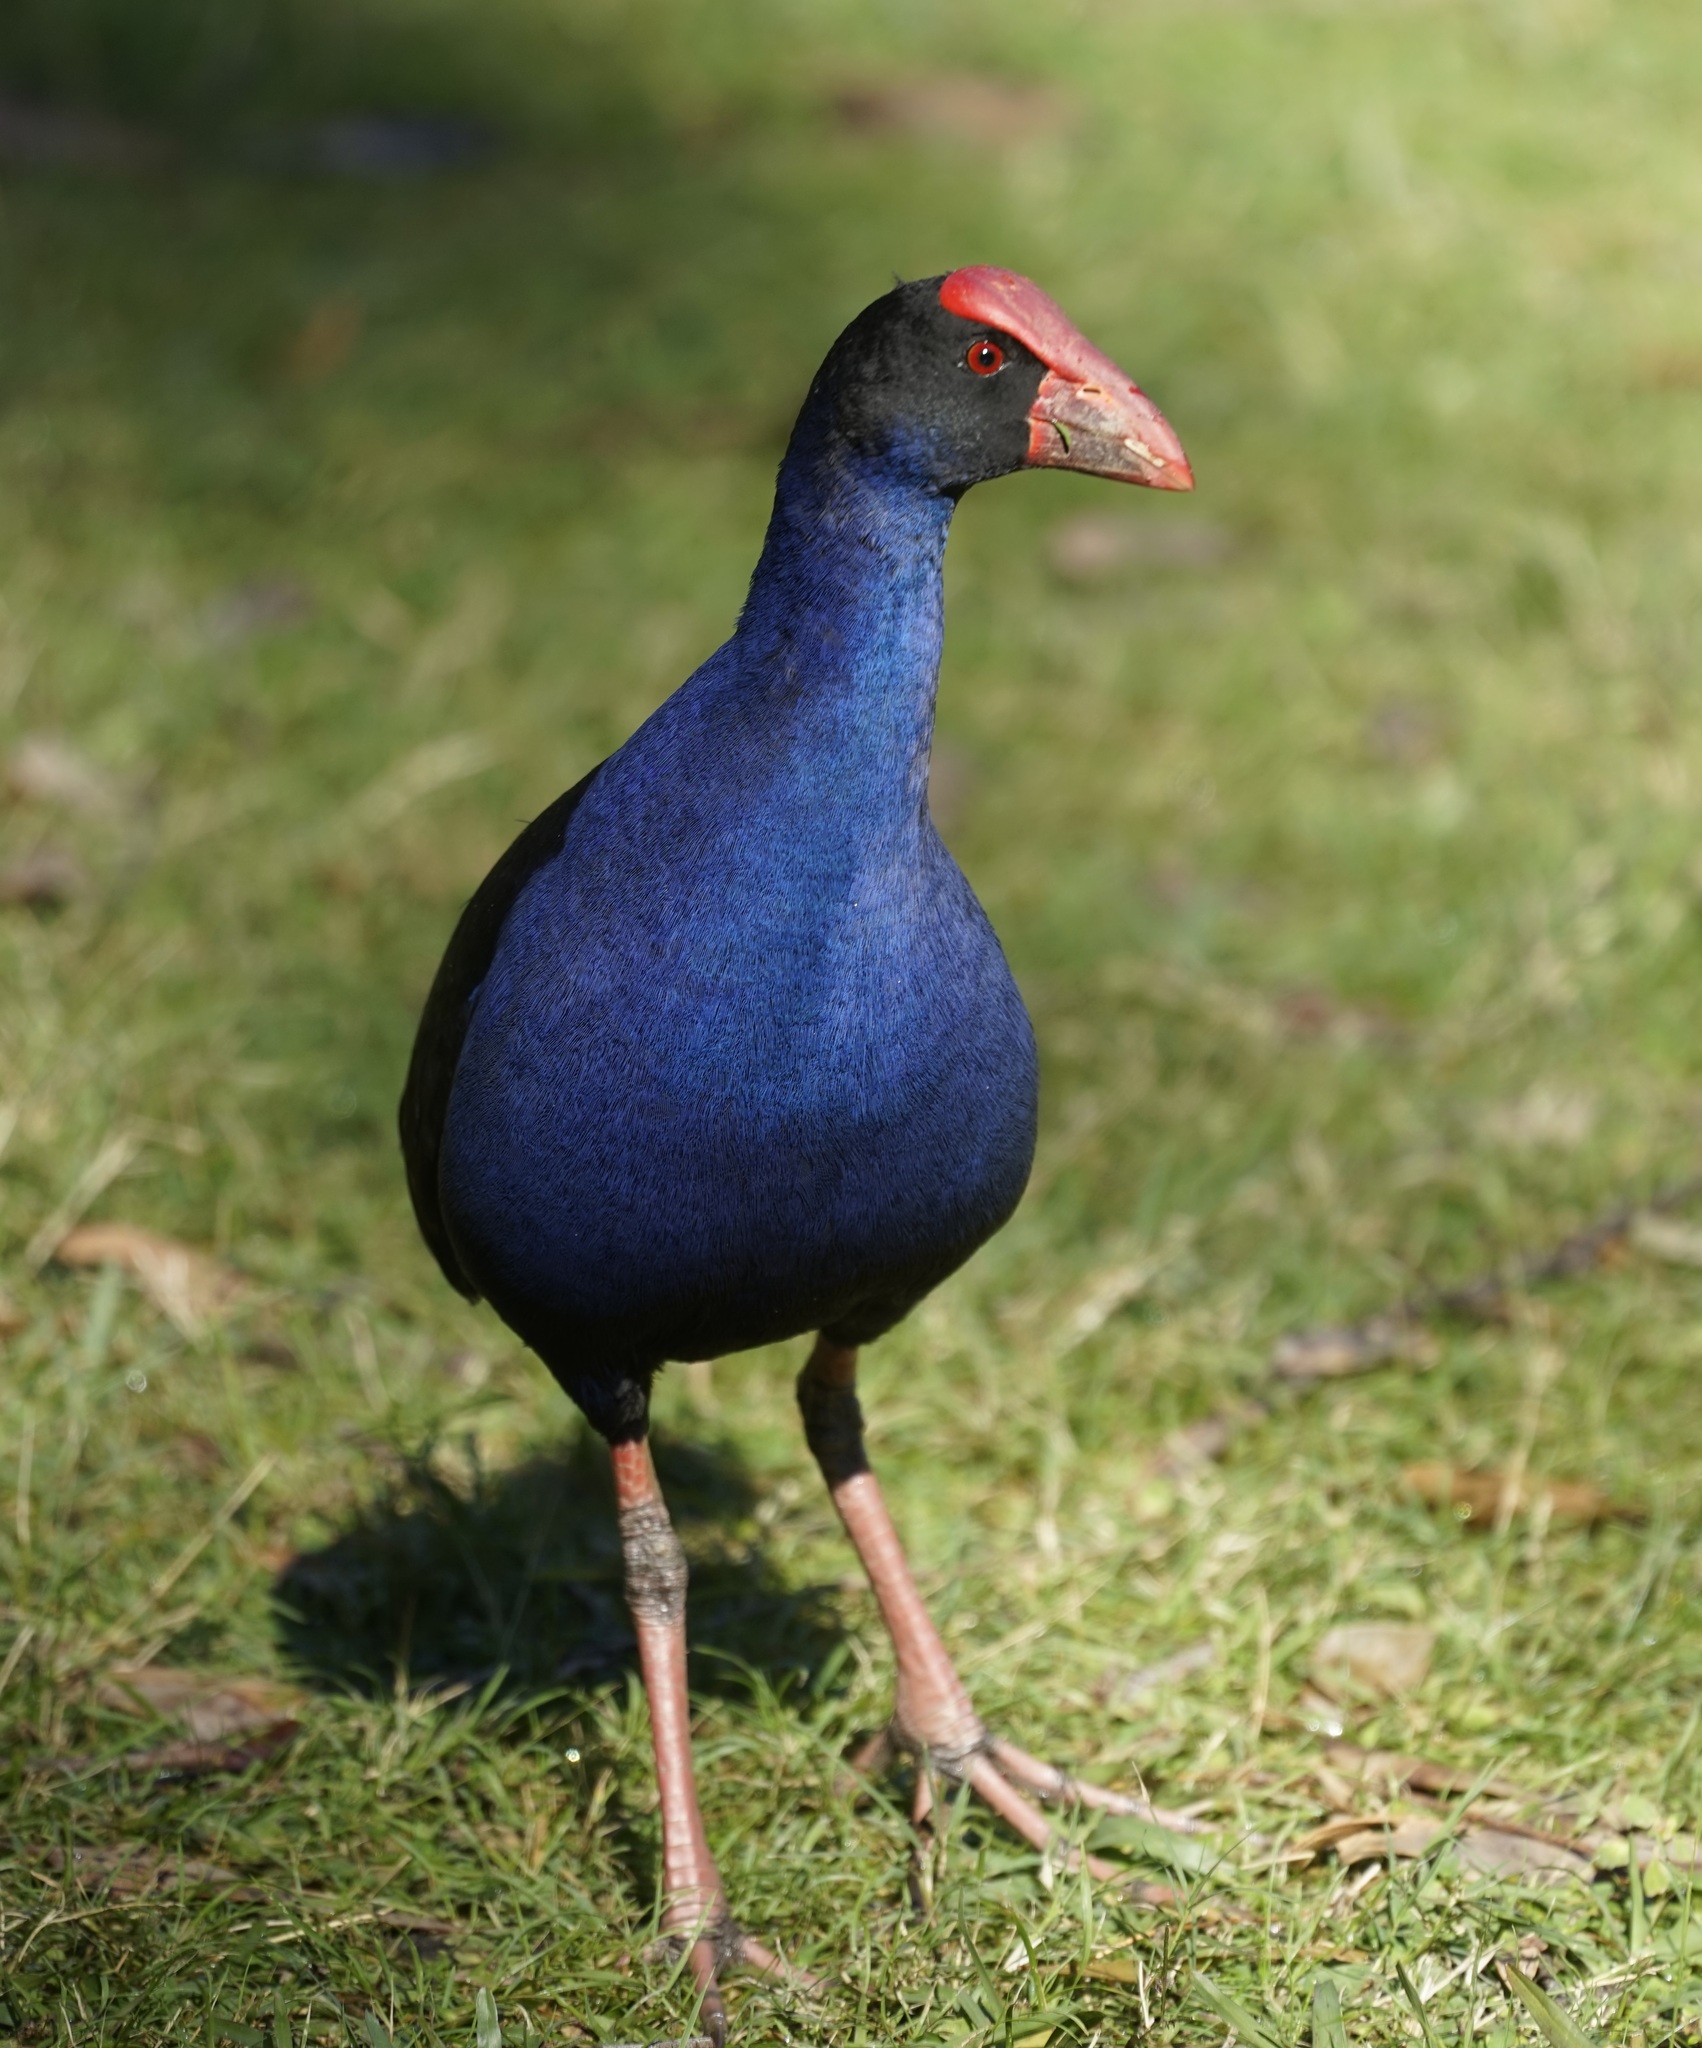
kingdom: Animalia
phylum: Chordata
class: Aves
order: Gruiformes
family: Rallidae
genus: Porphyrio
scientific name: Porphyrio melanotus
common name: Australasian swamphen
